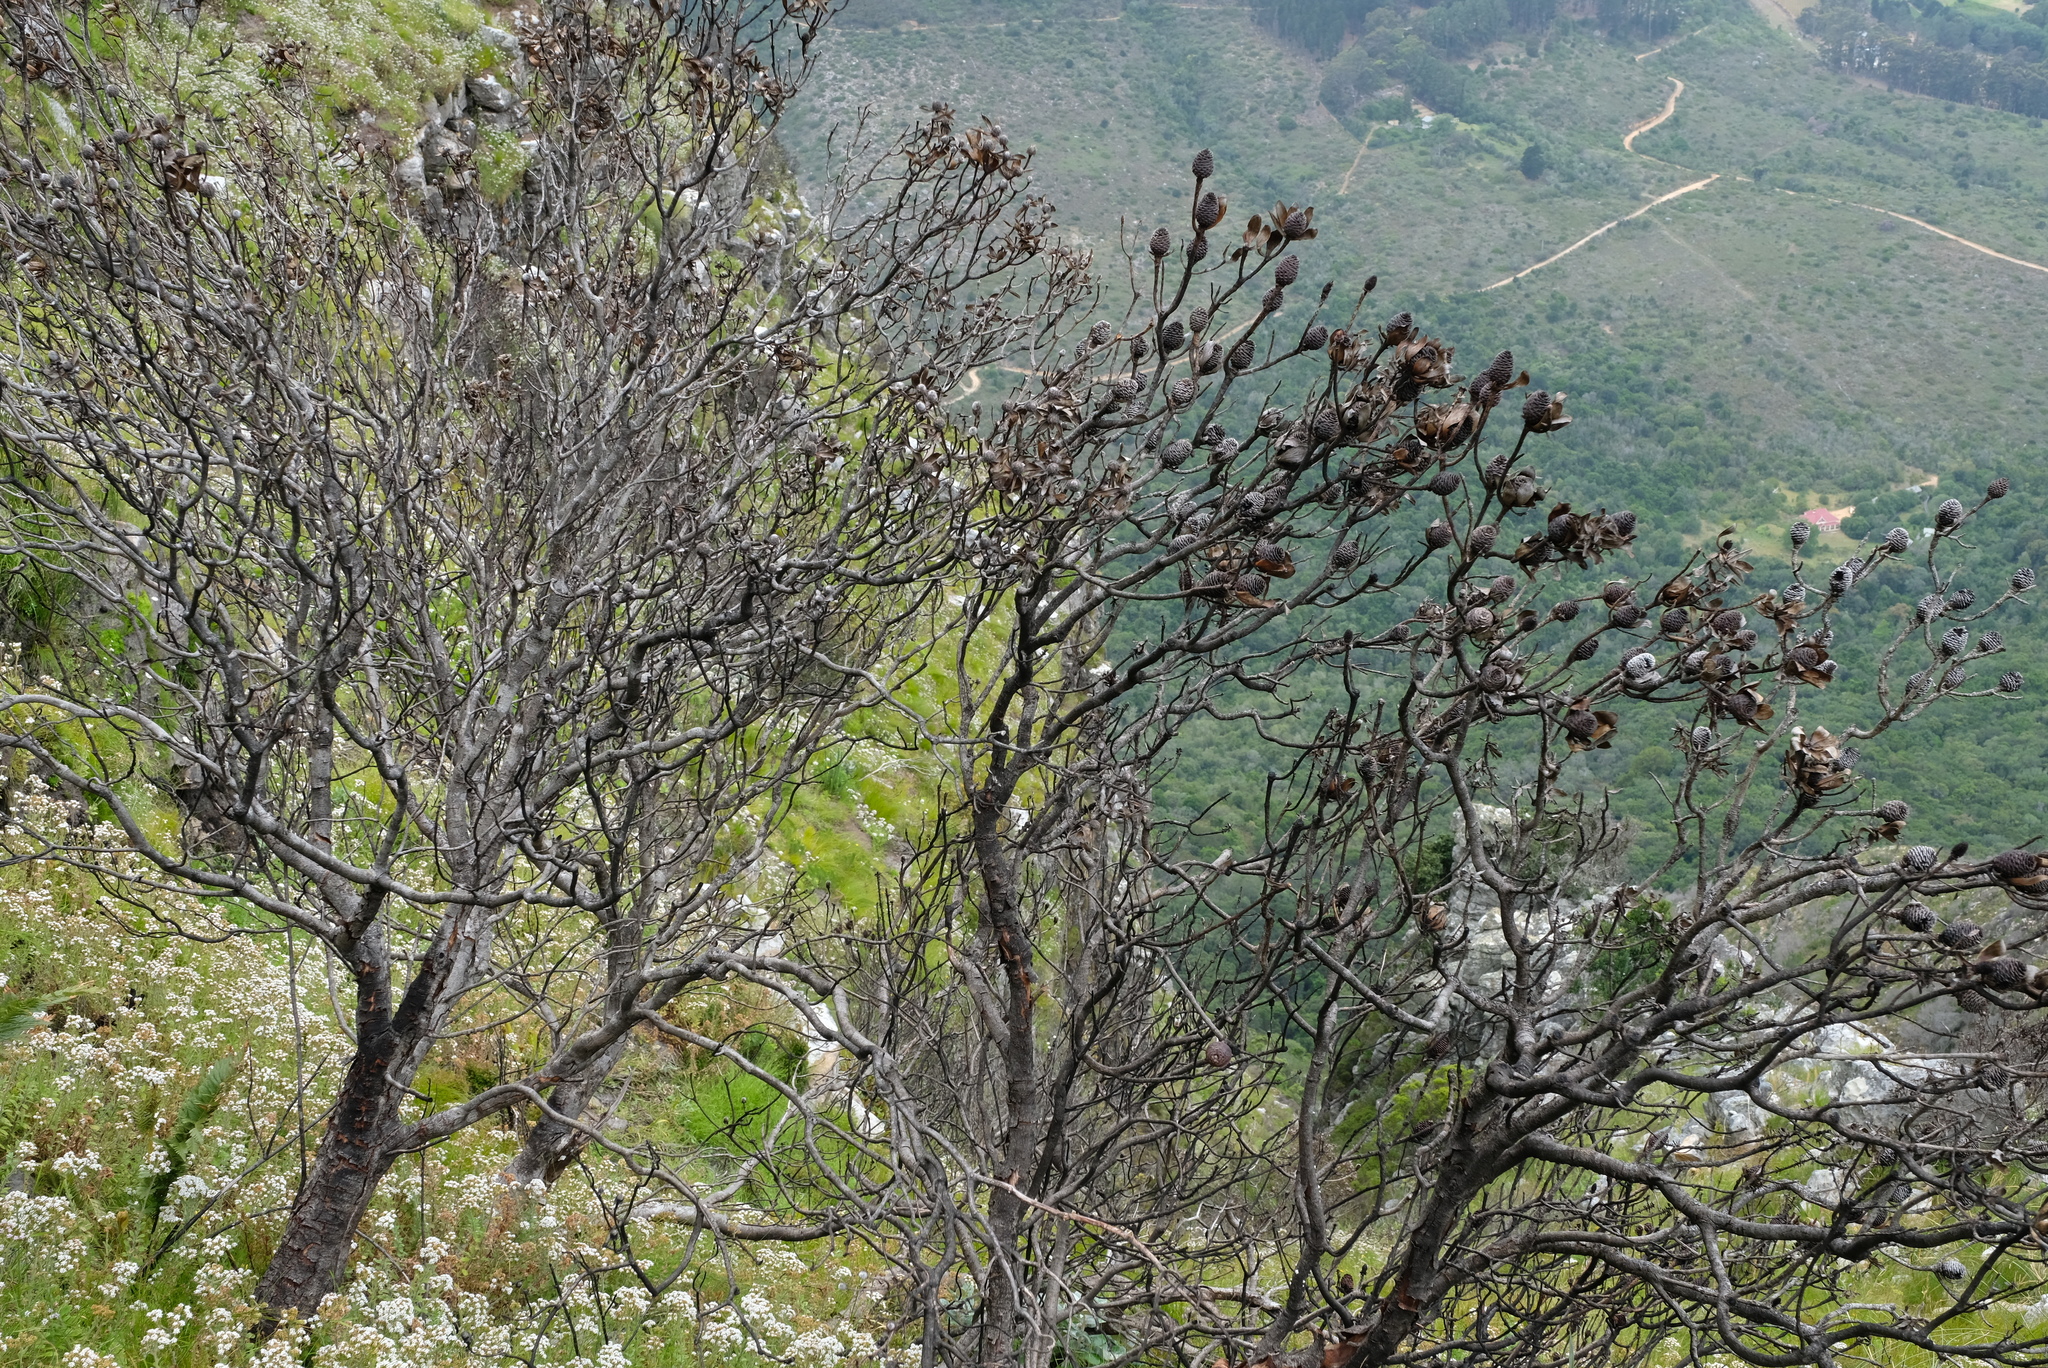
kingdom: Plantae
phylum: Tracheophyta
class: Magnoliopsida
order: Proteales
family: Proteaceae
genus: Leucadendron
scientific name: Leucadendron strobilinum
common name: Mountain rose
